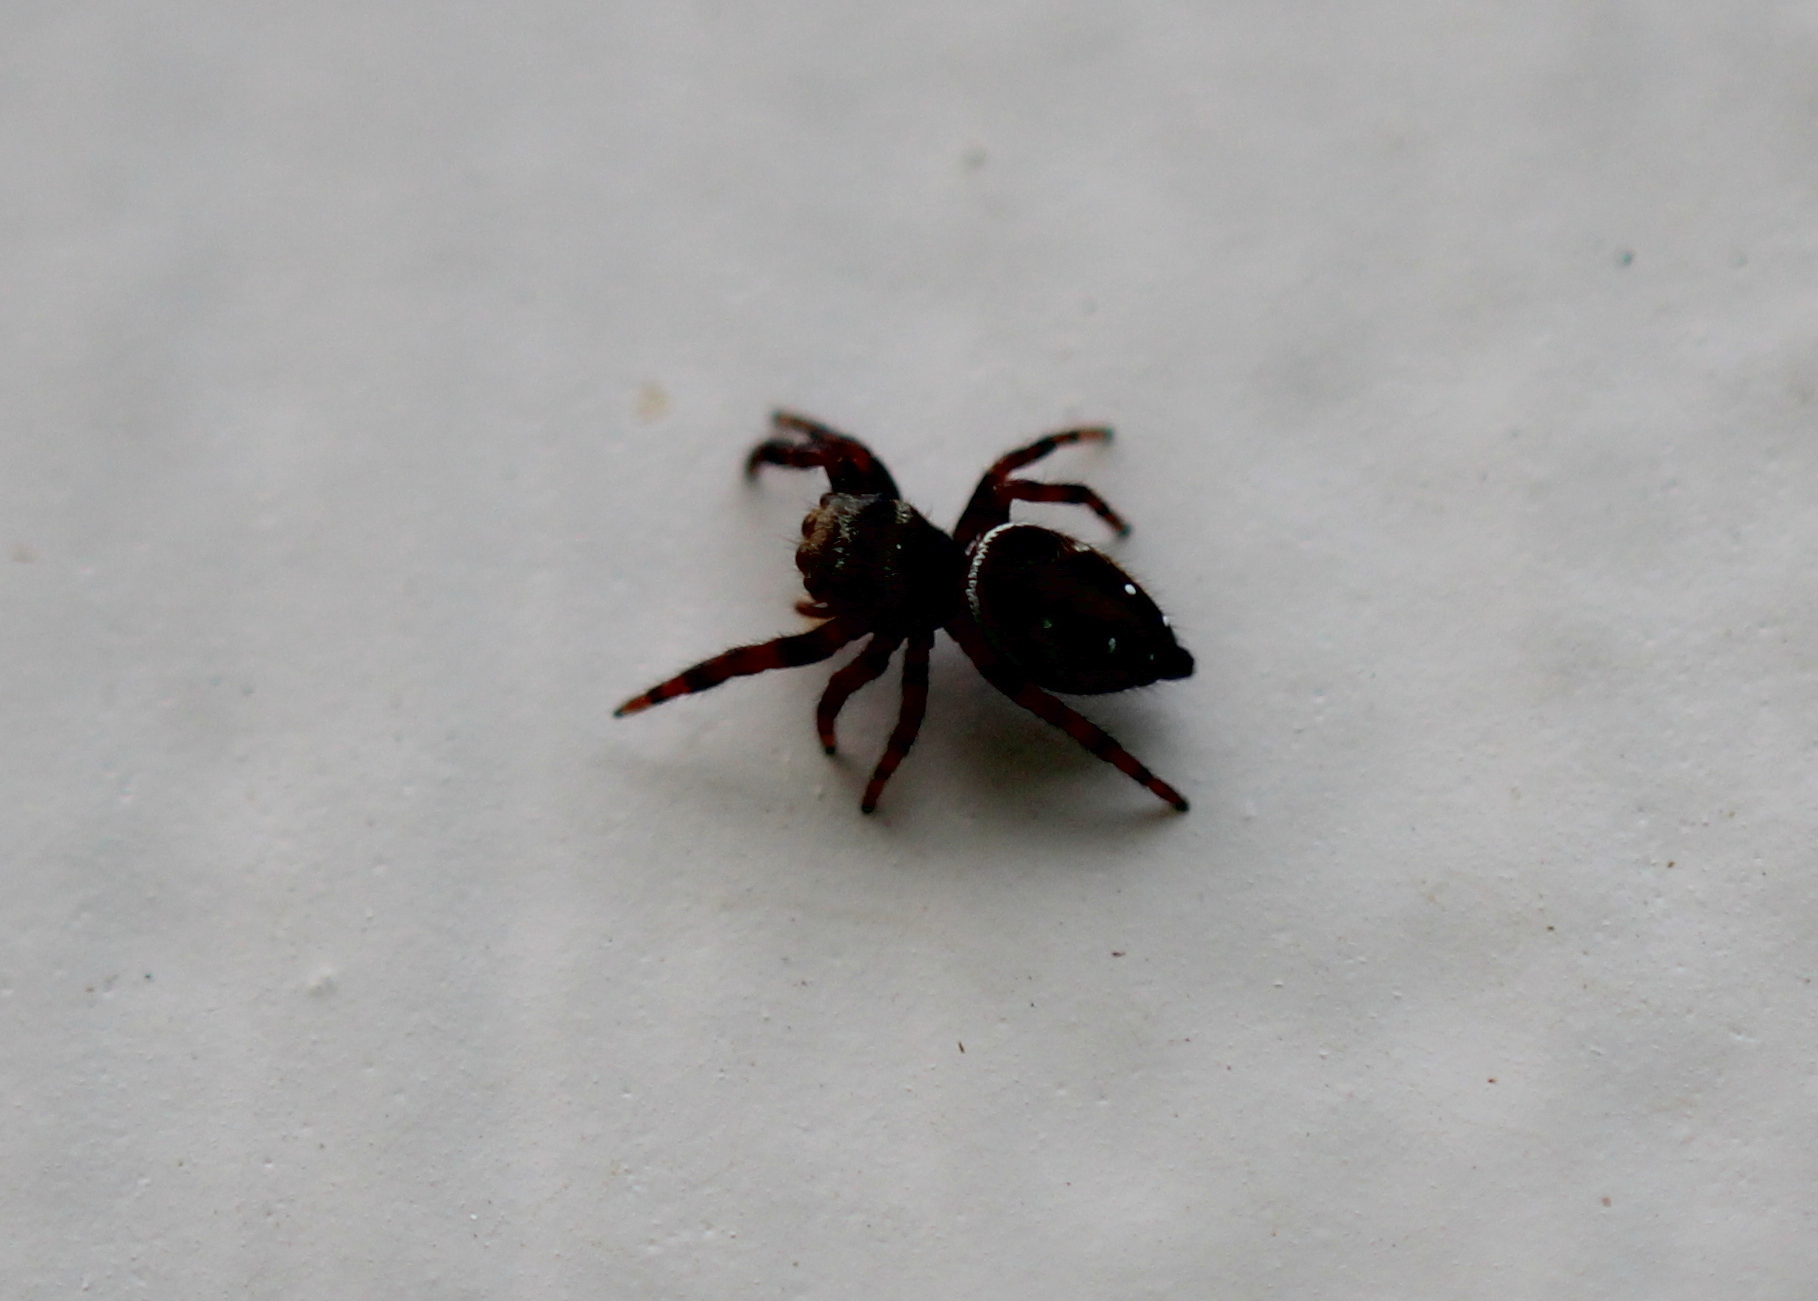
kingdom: Animalia
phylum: Arthropoda
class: Arachnida
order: Araneae
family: Salticidae
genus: Phidippus
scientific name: Phidippus clarus
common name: Brilliant jumping spider
